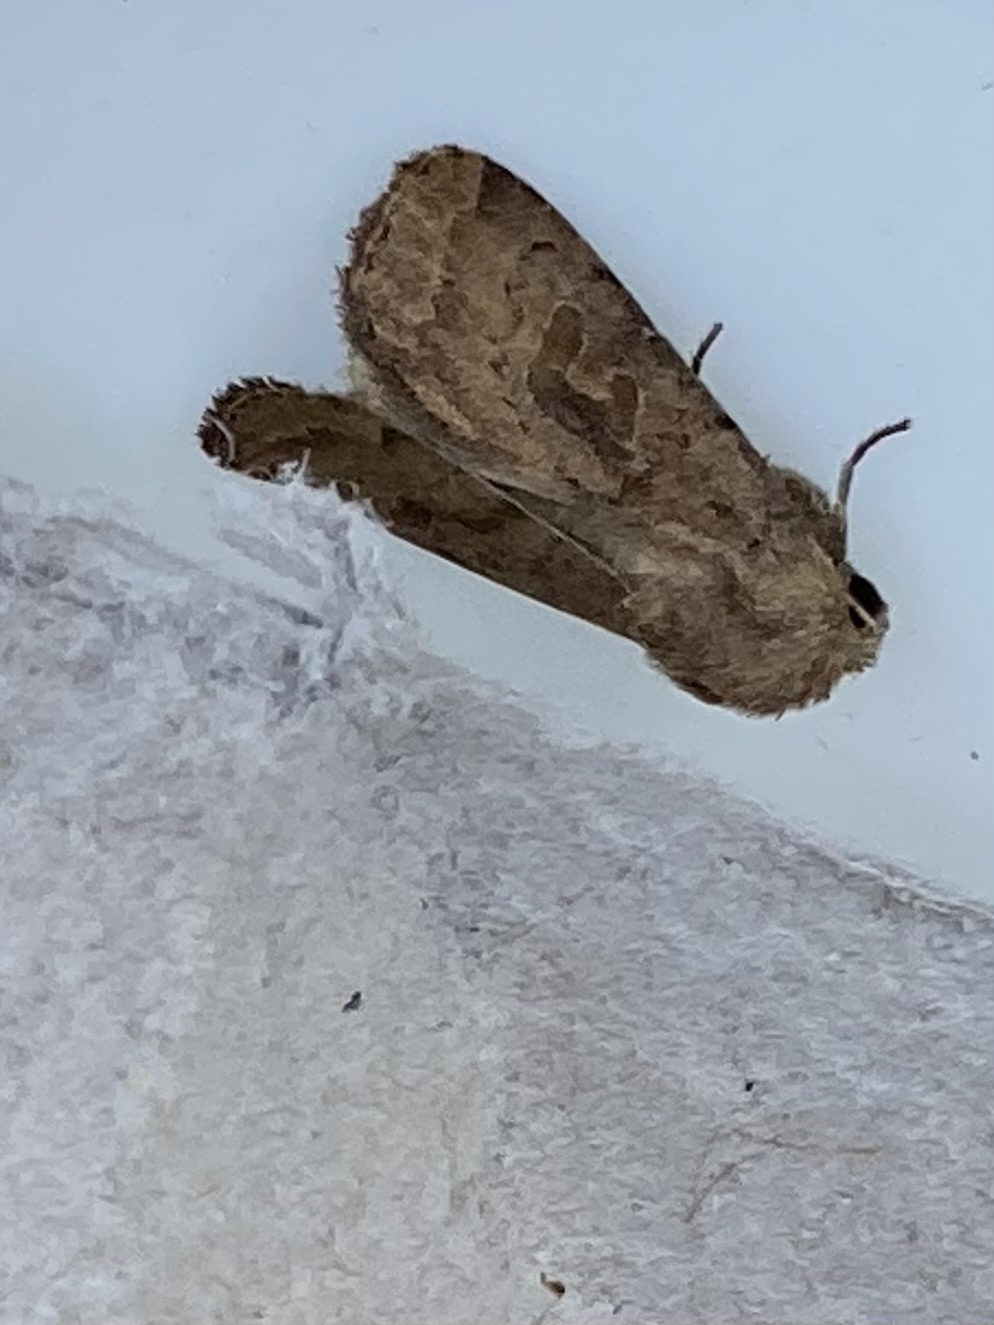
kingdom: Animalia
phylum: Arthropoda
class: Insecta
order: Lepidoptera
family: Noctuidae
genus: Hoplodrina
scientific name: Hoplodrina octogenaria
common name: Uncertain
